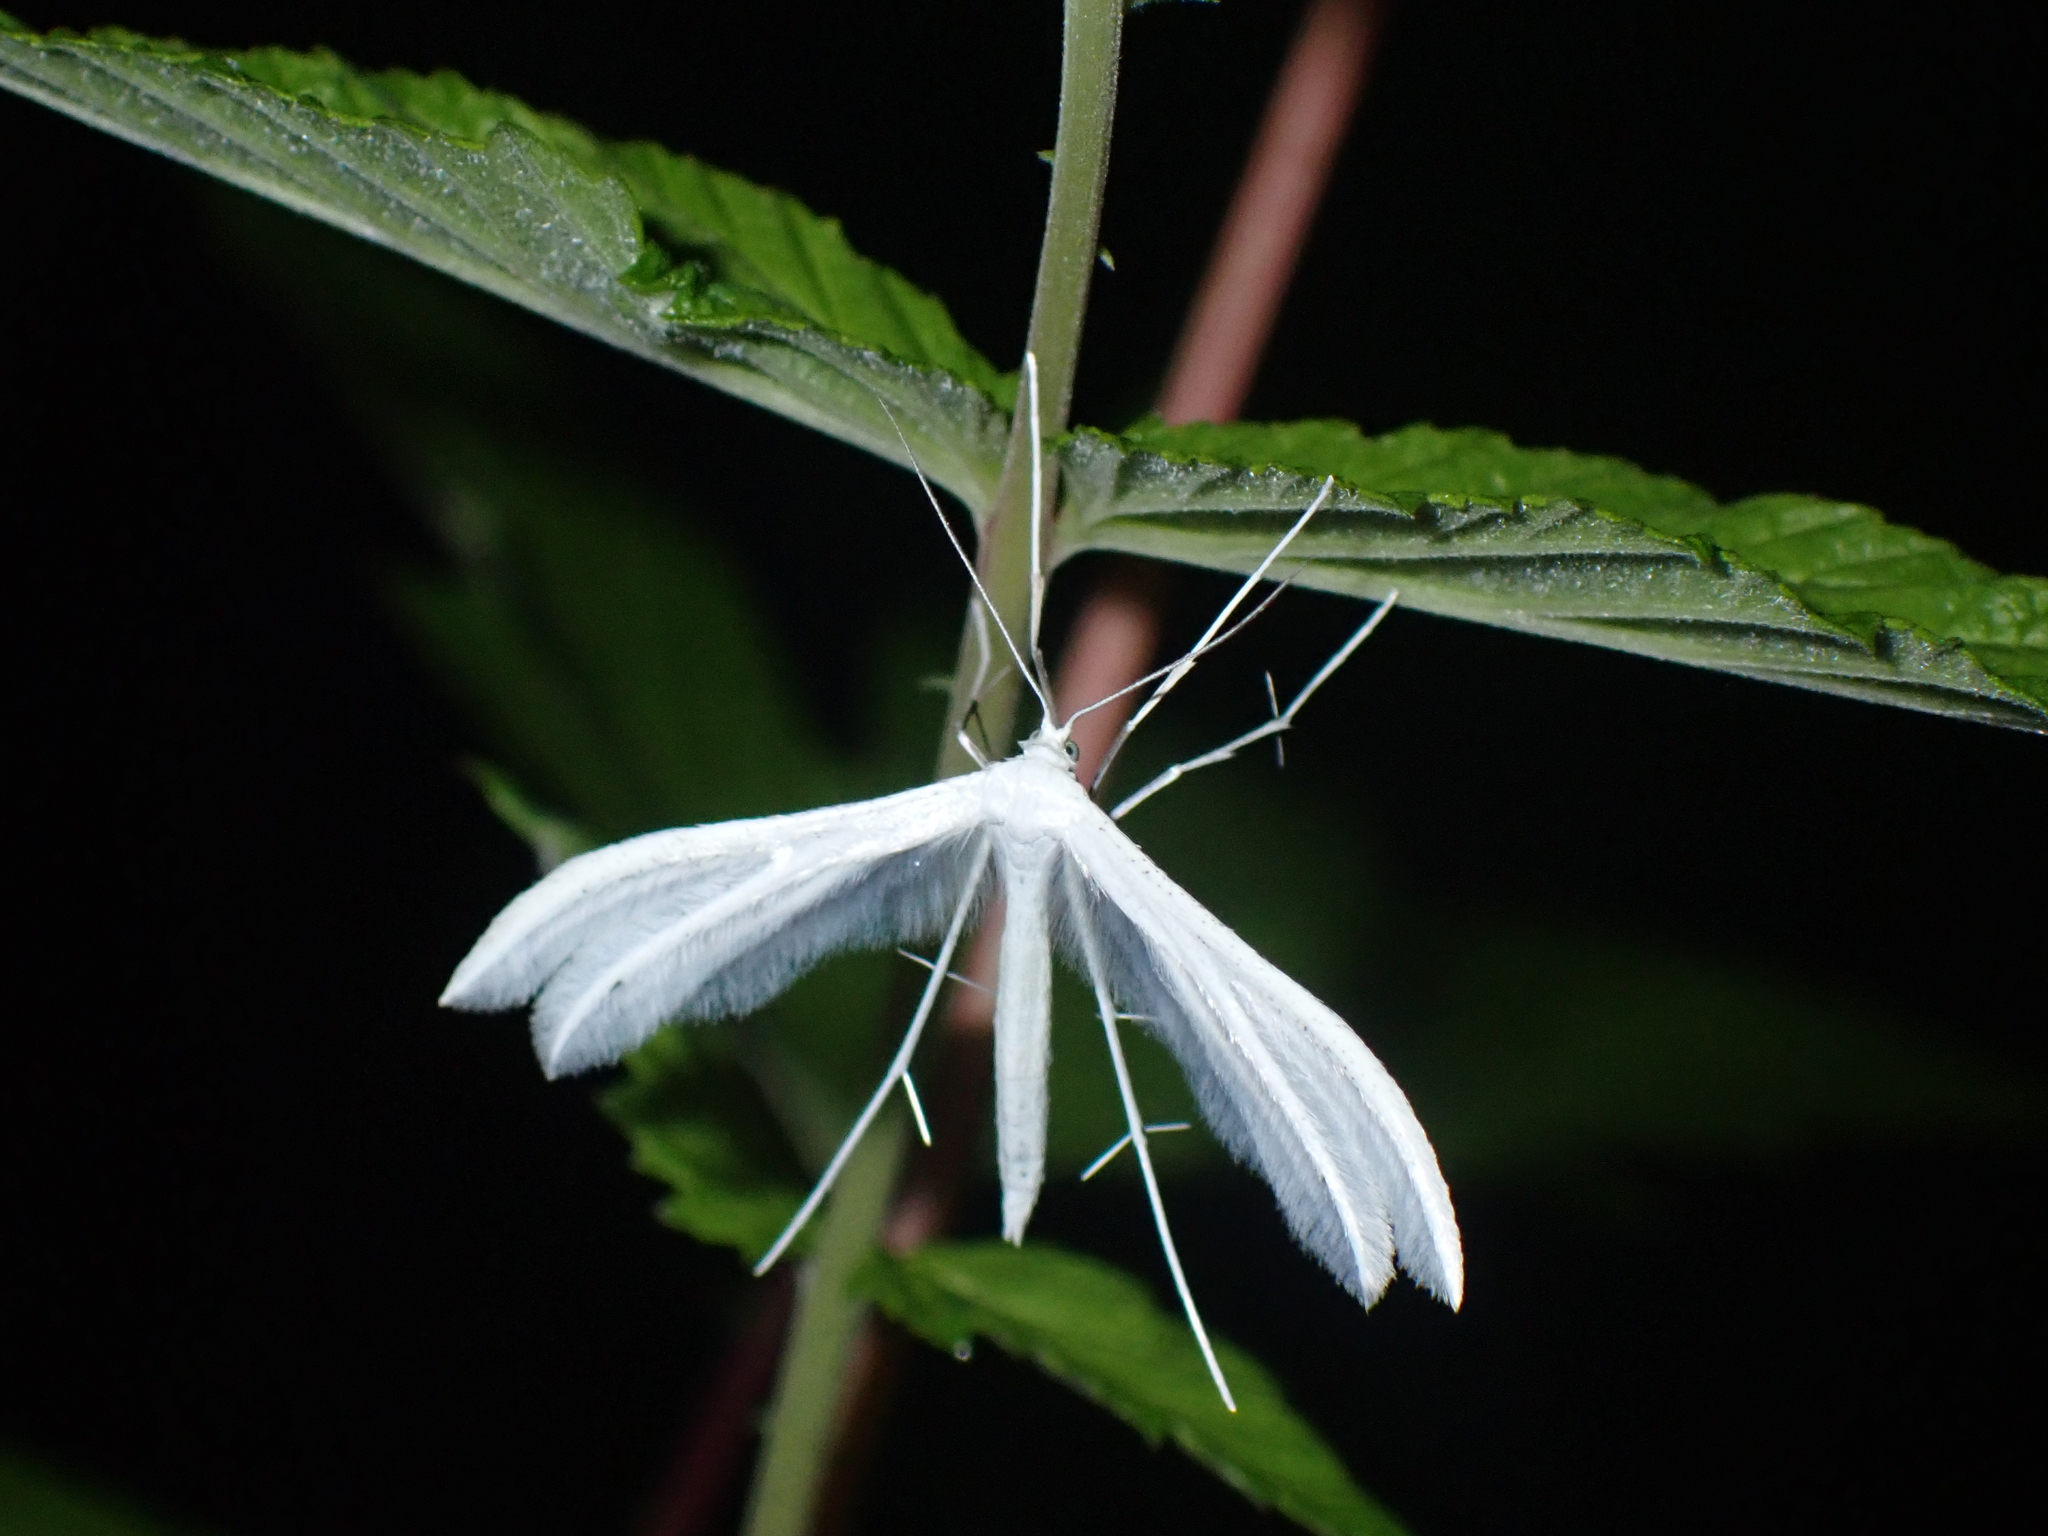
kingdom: Animalia
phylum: Arthropoda
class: Insecta
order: Lepidoptera
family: Pterophoridae
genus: Pterophorus
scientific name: Pterophorus pentadactyla
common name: White plume moth
